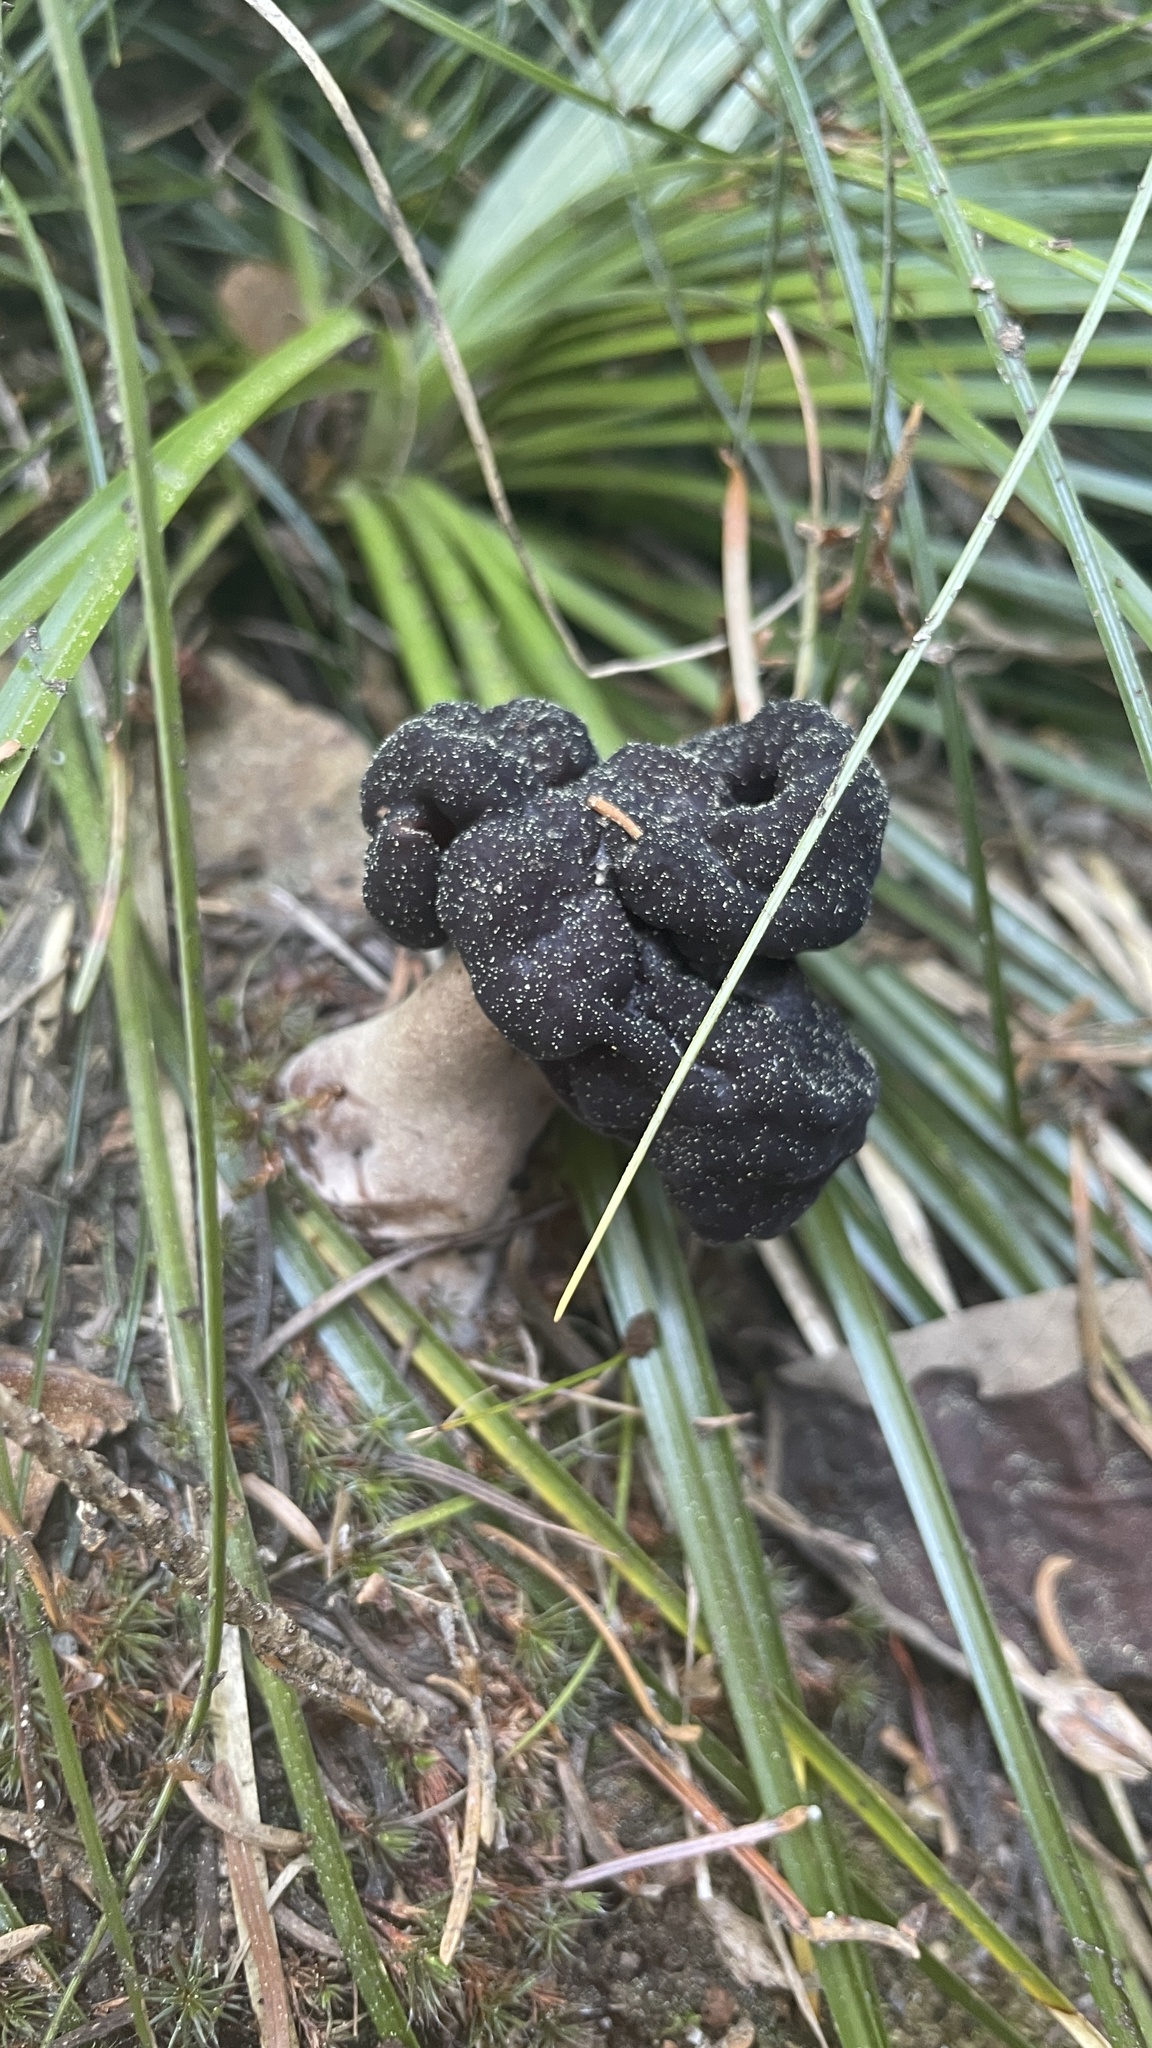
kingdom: Fungi
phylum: Ascomycota
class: Pezizomycetes
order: Pezizales
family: Discinaceae
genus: Gyromitra
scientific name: Gyromitra esculenta
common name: False morel
